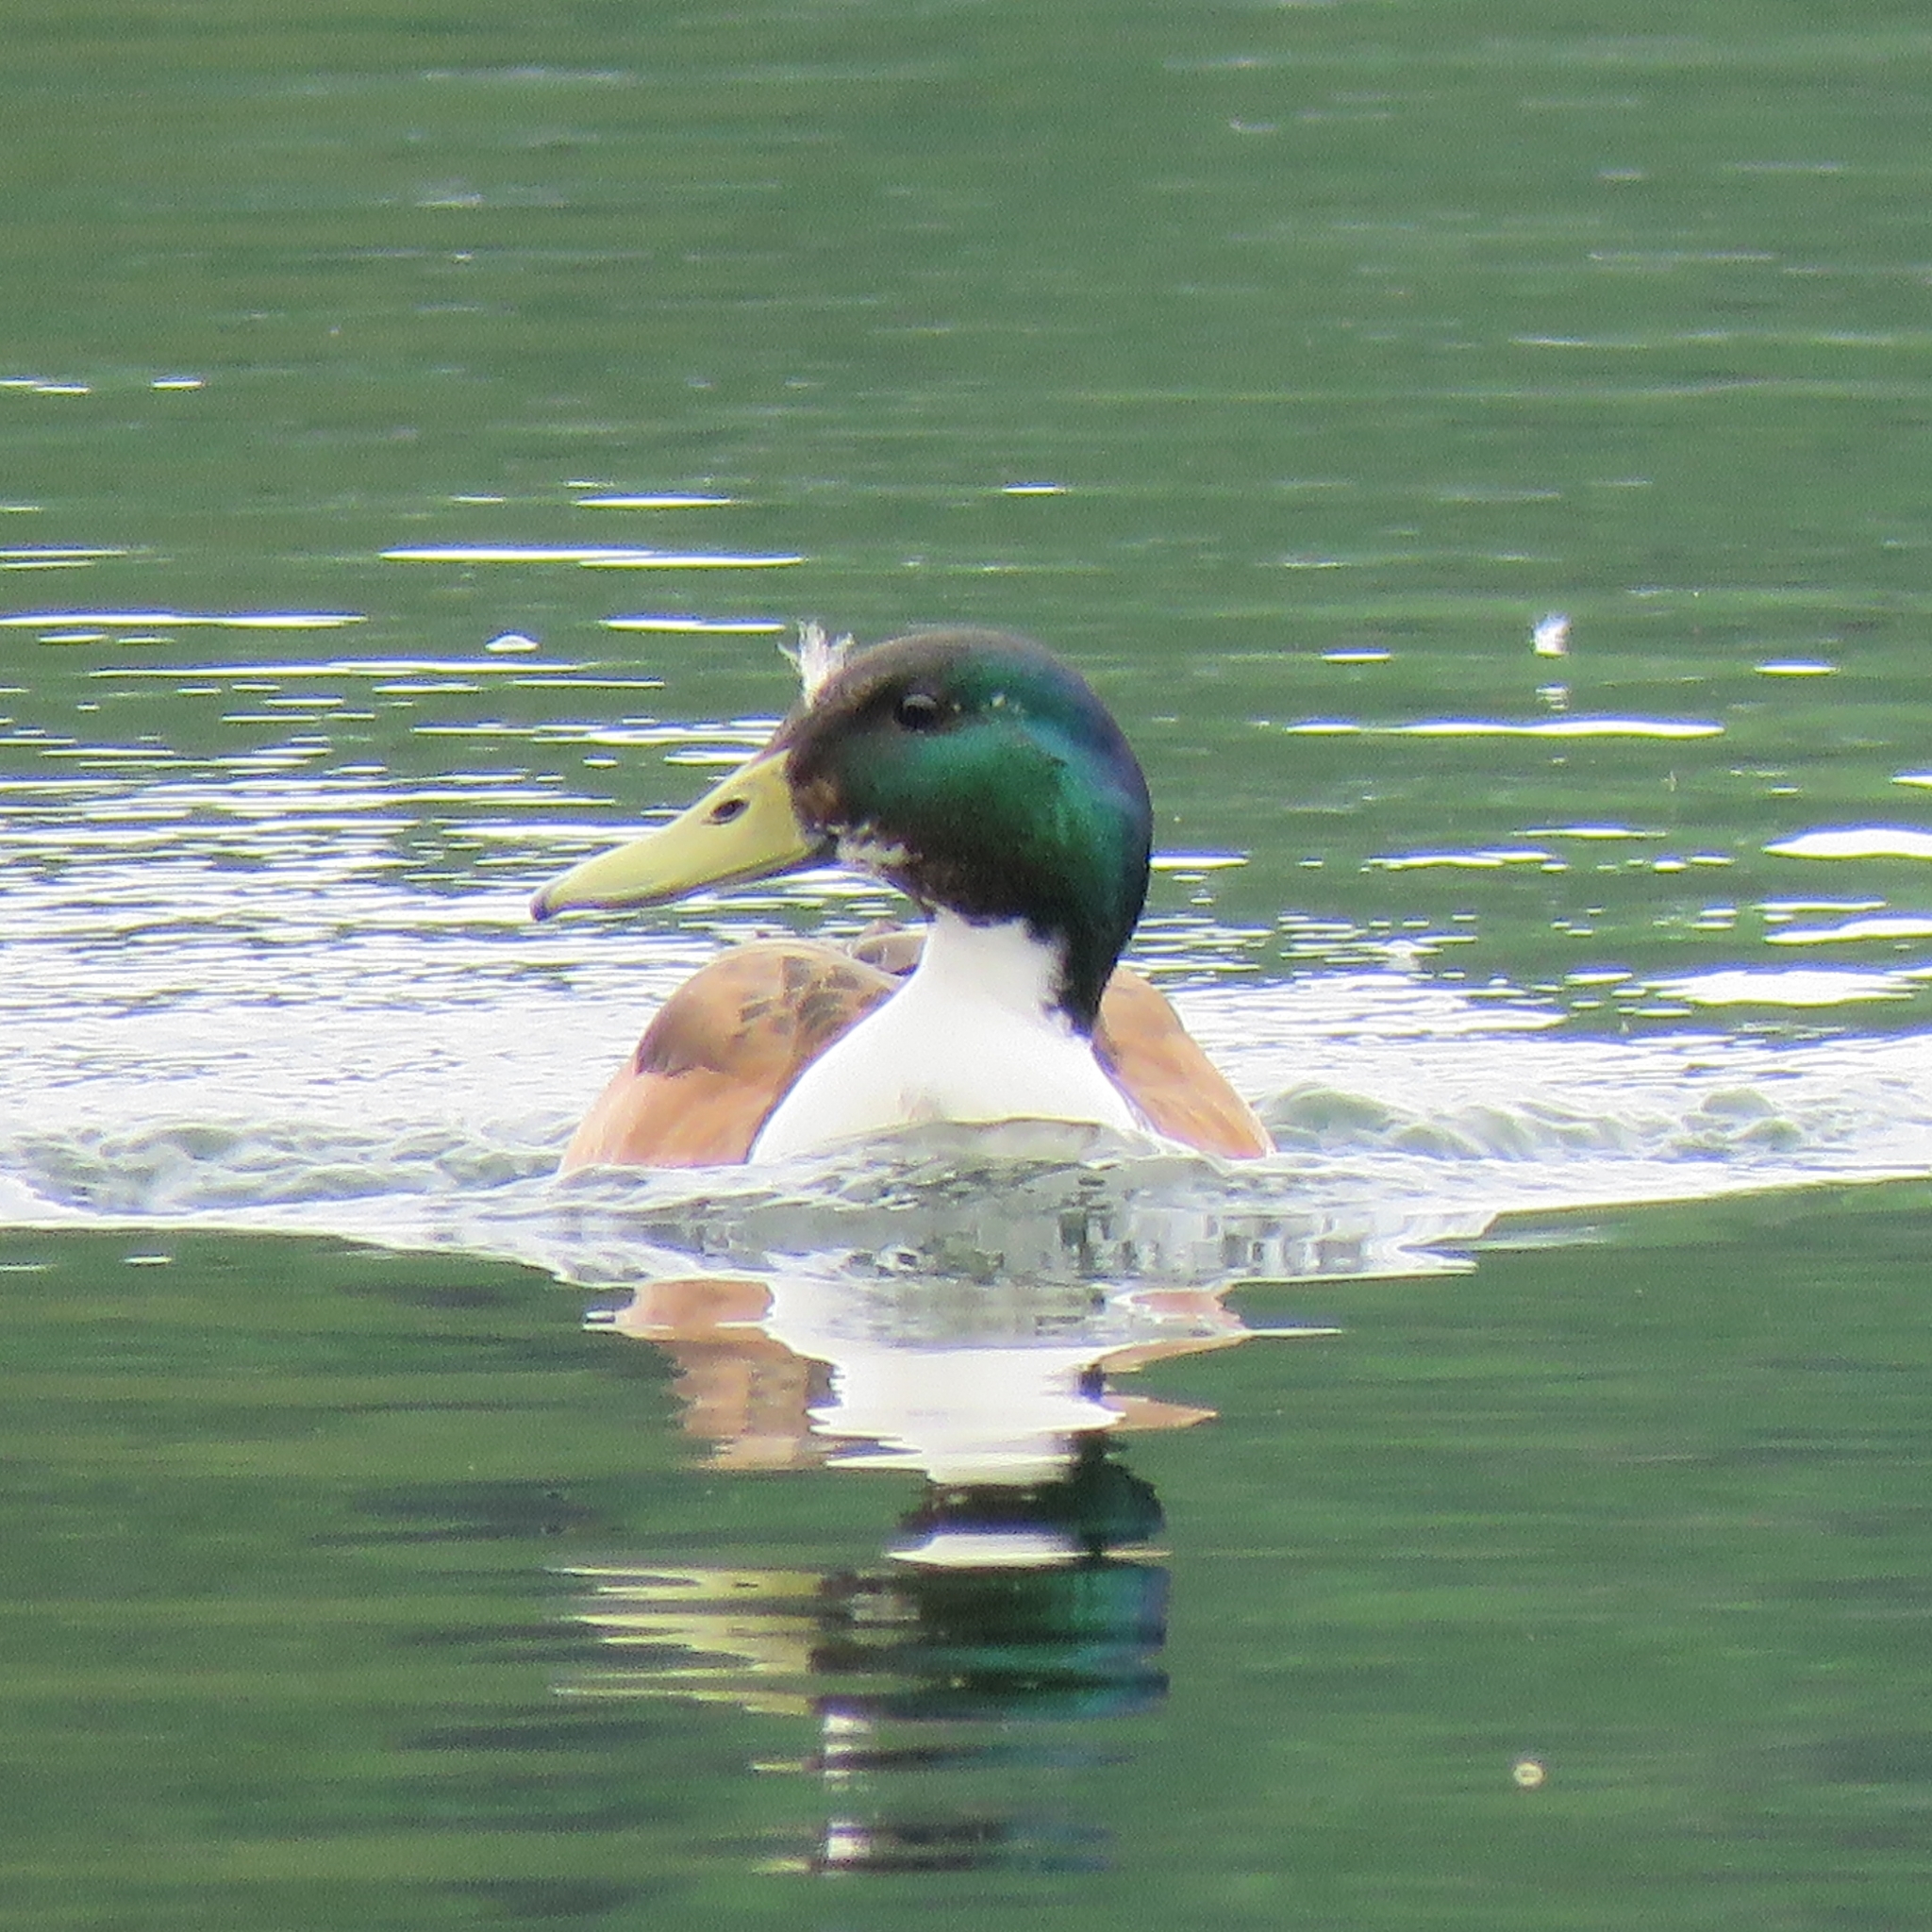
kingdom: Animalia
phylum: Chordata
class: Aves
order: Anseriformes
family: Anatidae
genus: Anas
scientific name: Anas platyrhynchos
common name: Mallard
